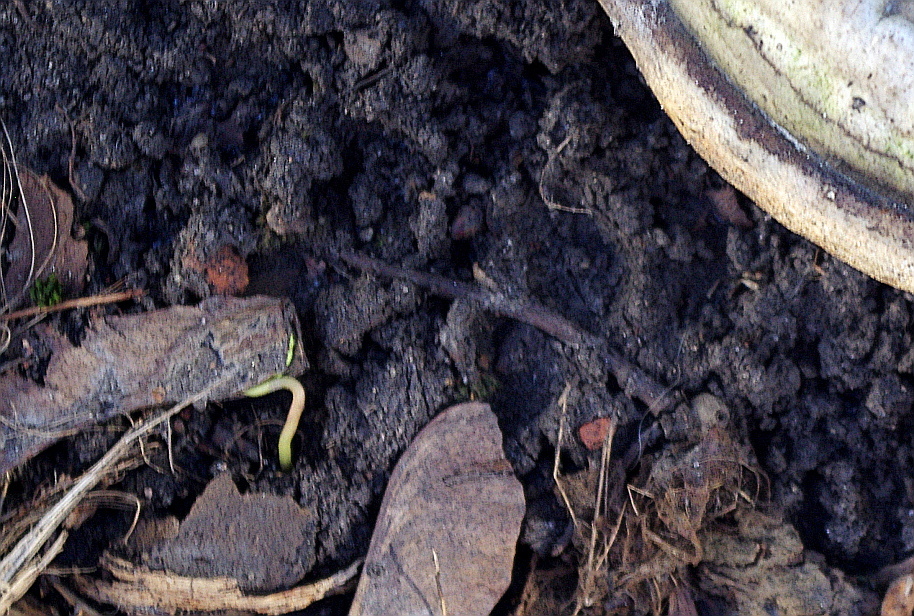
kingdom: Plantae
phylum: Tracheophyta
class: Magnoliopsida
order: Sapindales
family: Sapindaceae
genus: Acer
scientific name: Acer platanoides
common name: Norway maple
